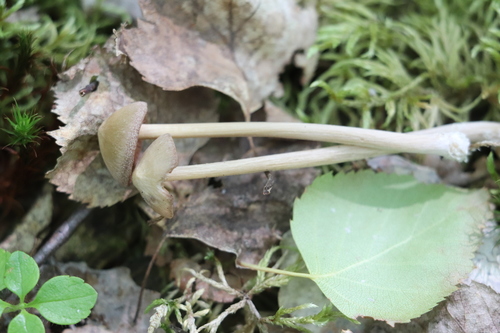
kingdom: Fungi
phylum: Basidiomycota
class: Agaricomycetes
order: Agaricales
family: Entolomataceae
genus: Entoloma
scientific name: Entoloma lanuginosipes
